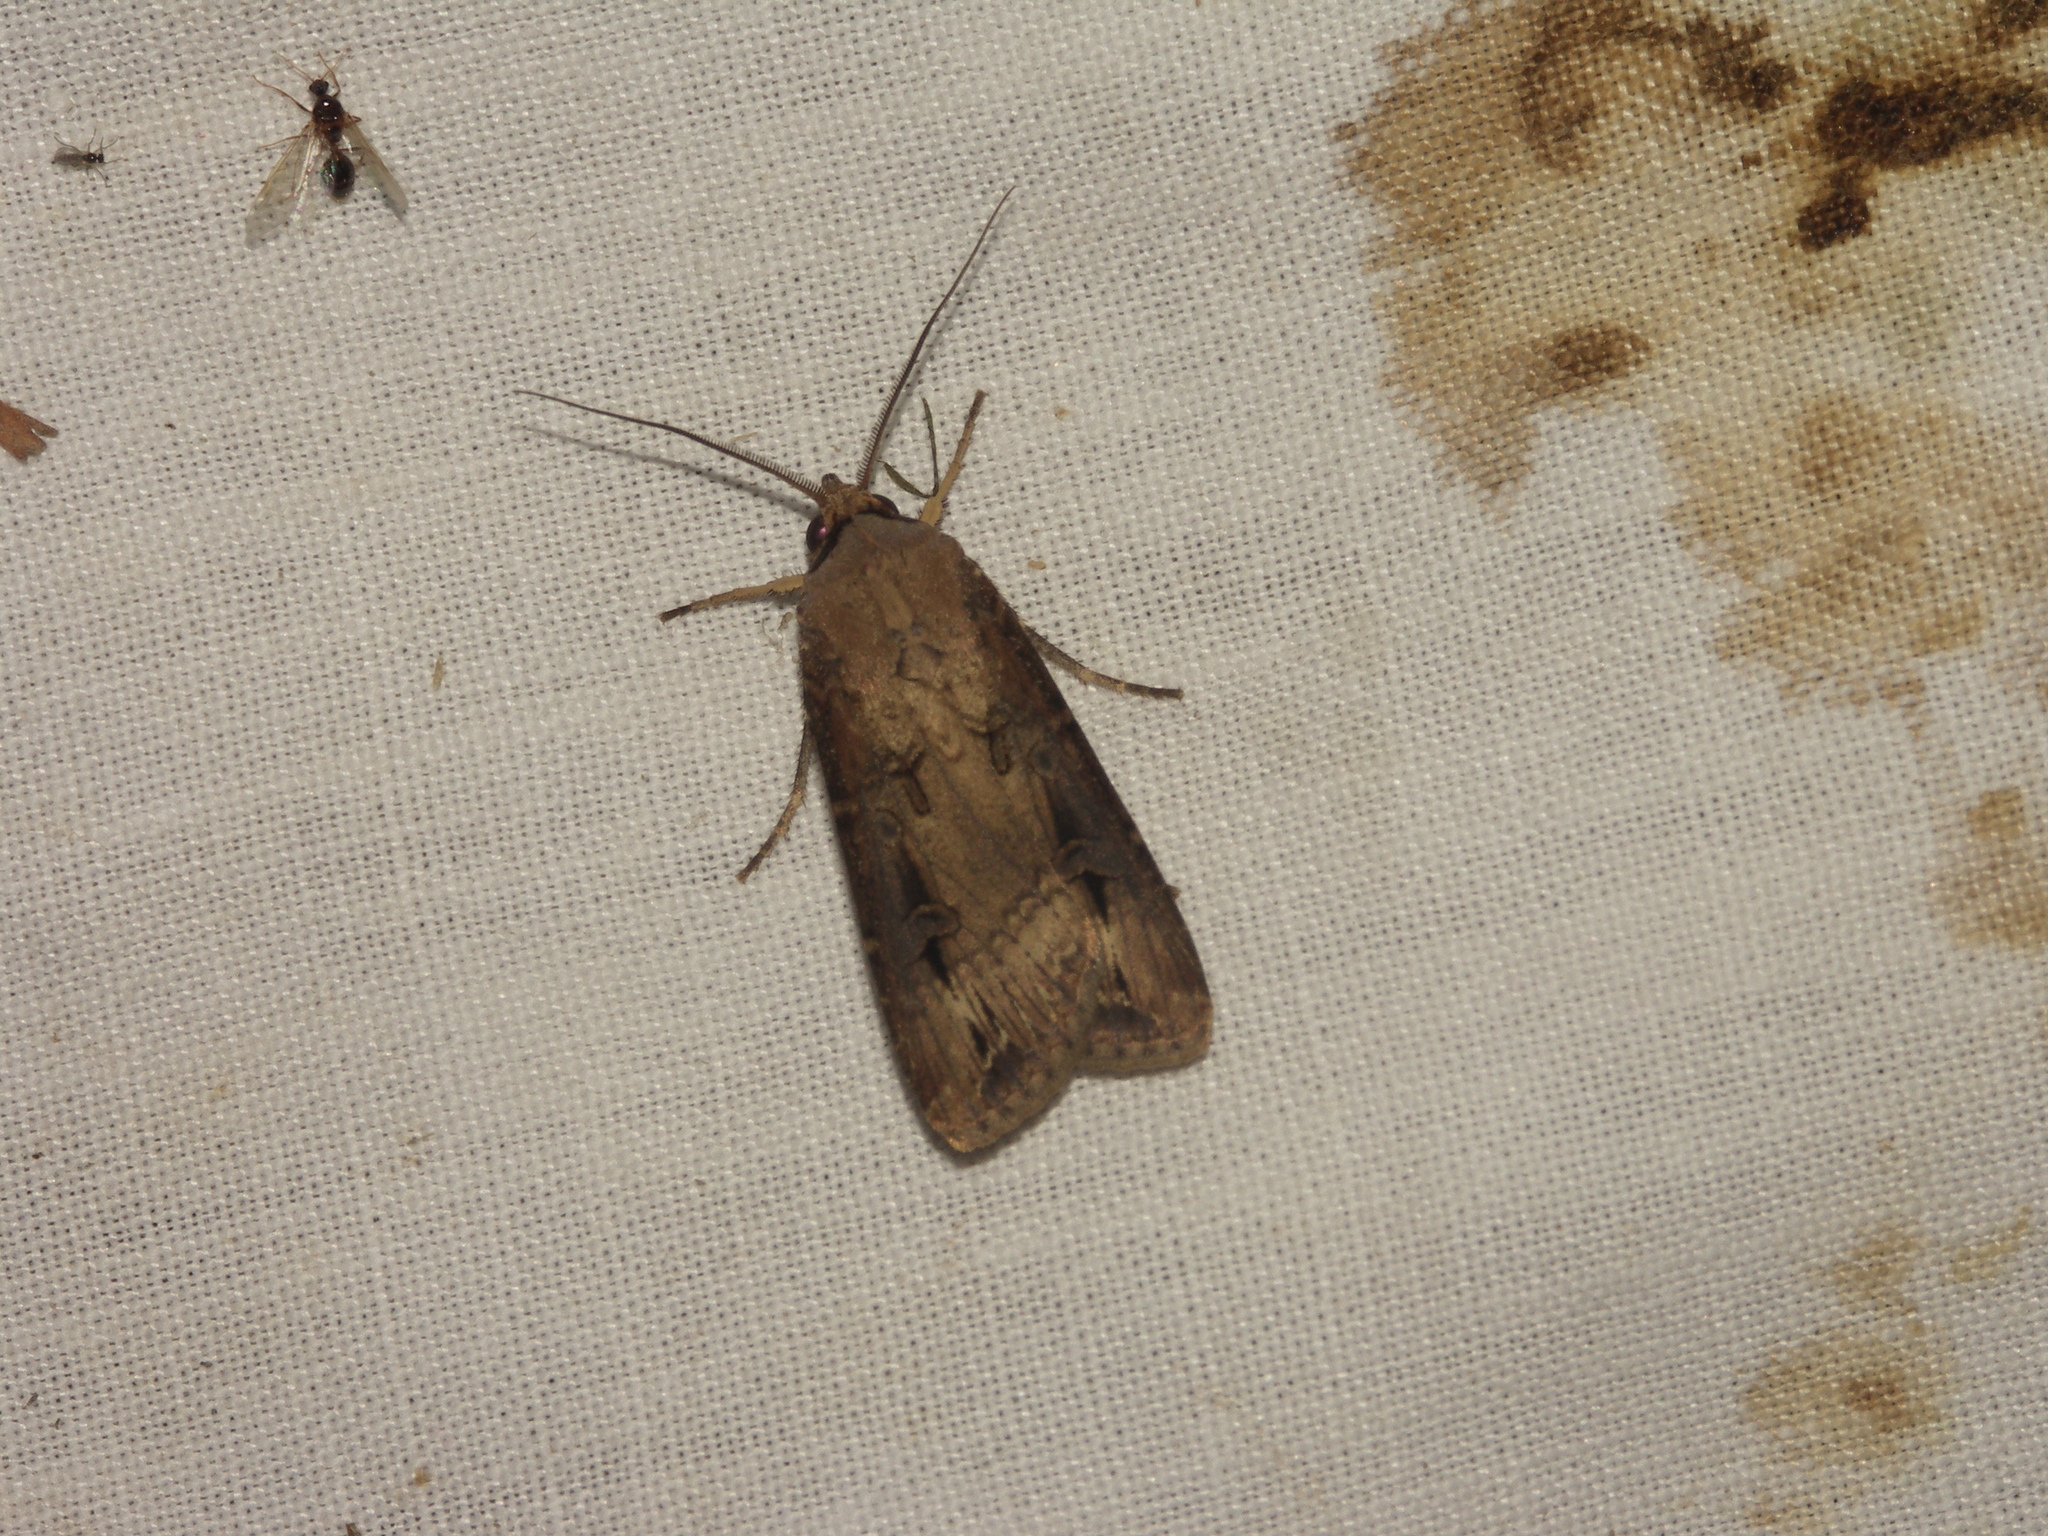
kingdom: Animalia
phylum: Arthropoda
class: Insecta
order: Lepidoptera
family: Noctuidae
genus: Agrotis
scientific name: Agrotis ipsilon
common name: Dark sword-grass
